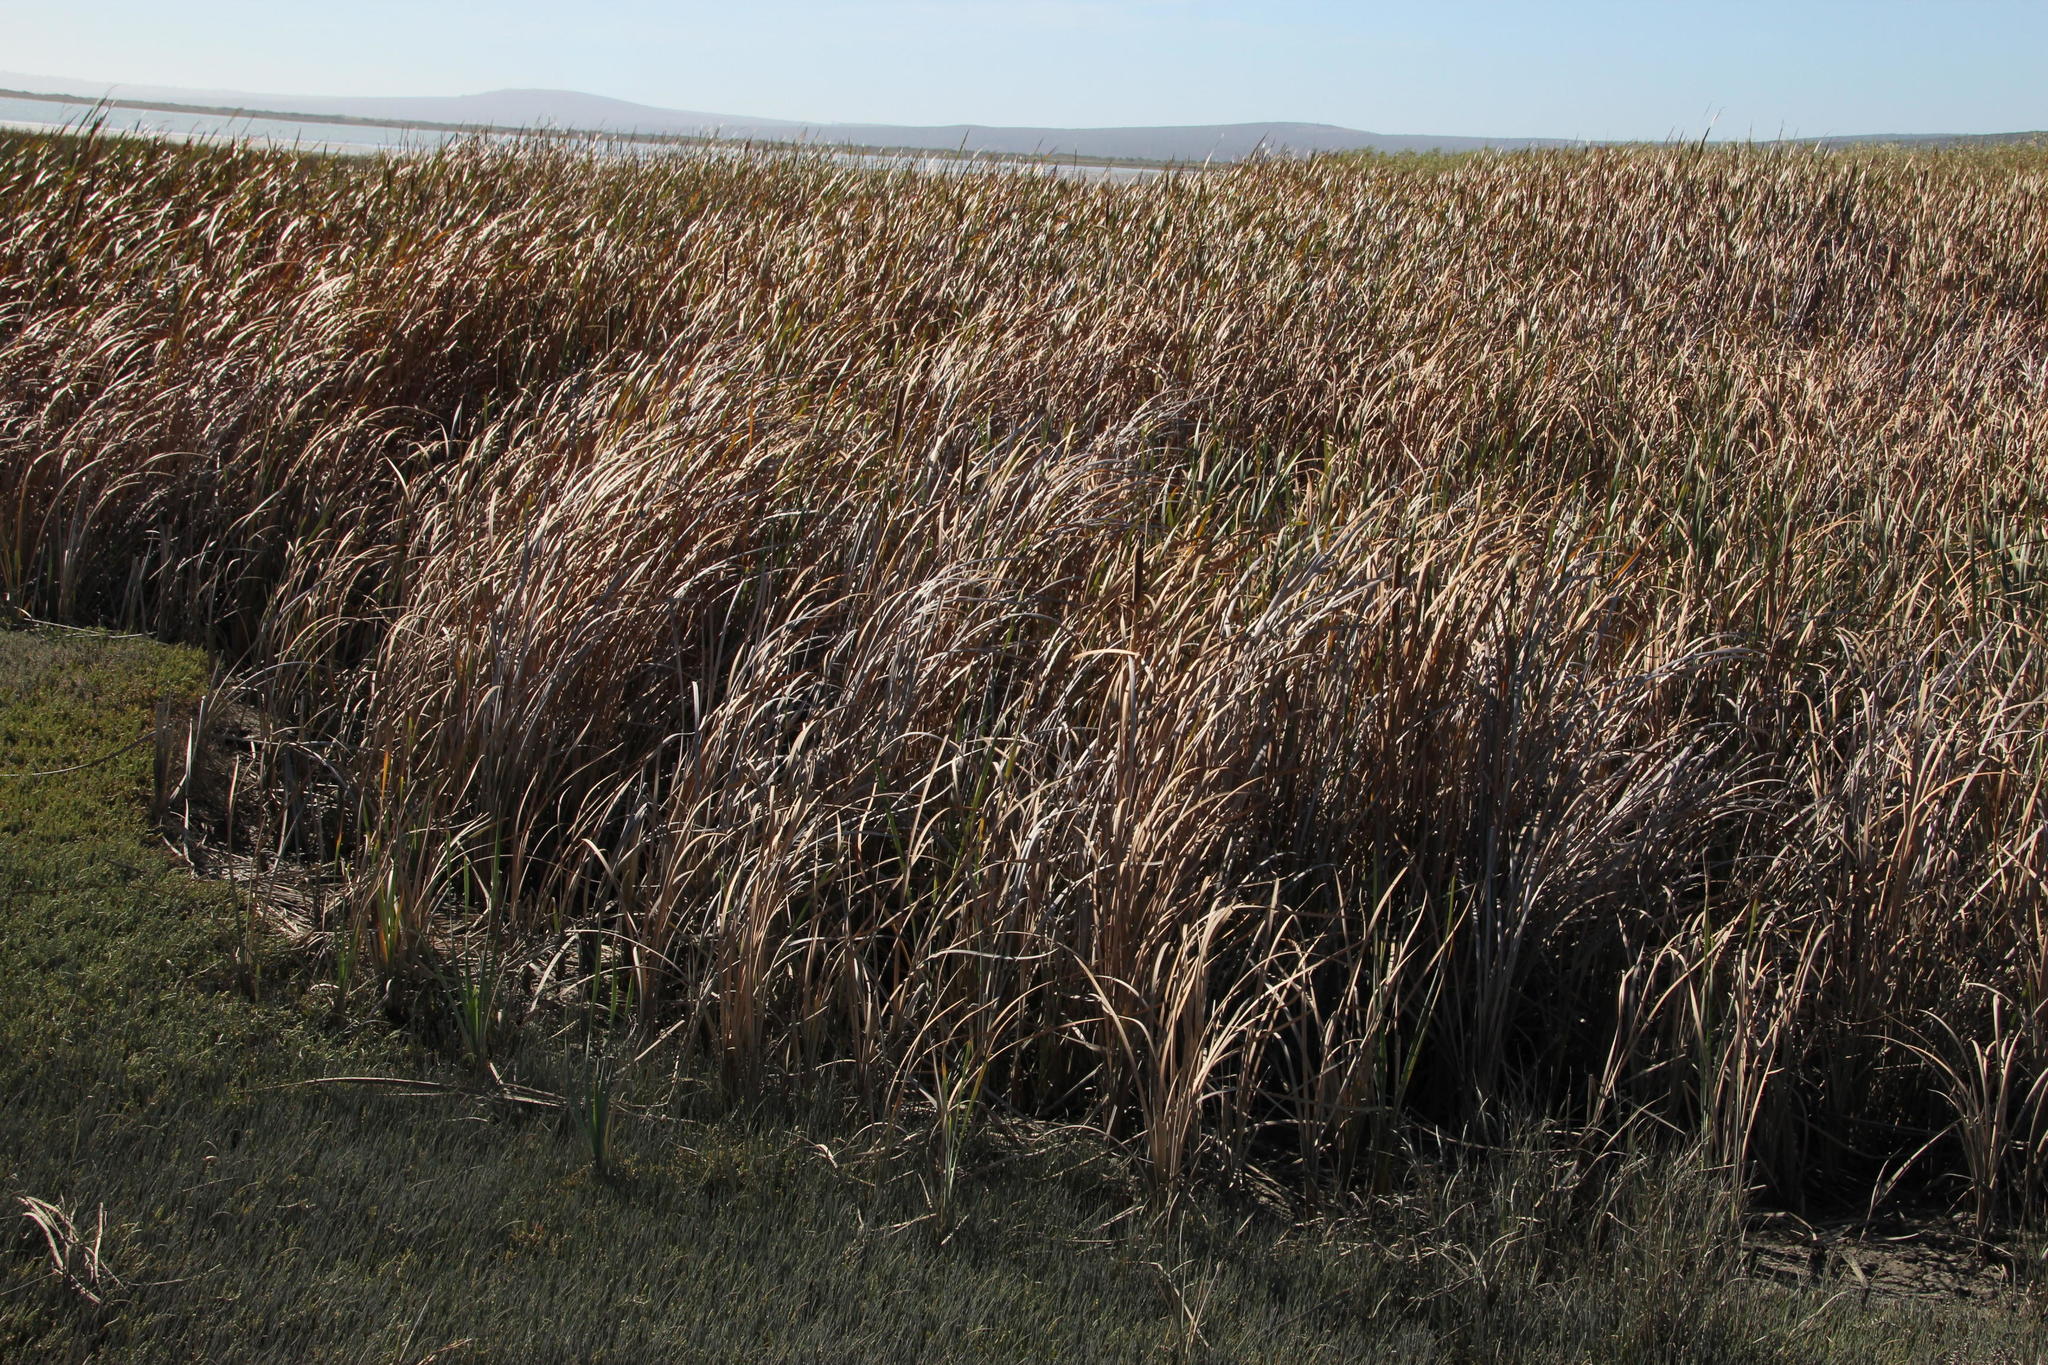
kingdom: Plantae
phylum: Tracheophyta
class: Liliopsida
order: Poales
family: Typhaceae
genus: Typha
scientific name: Typha capensis
